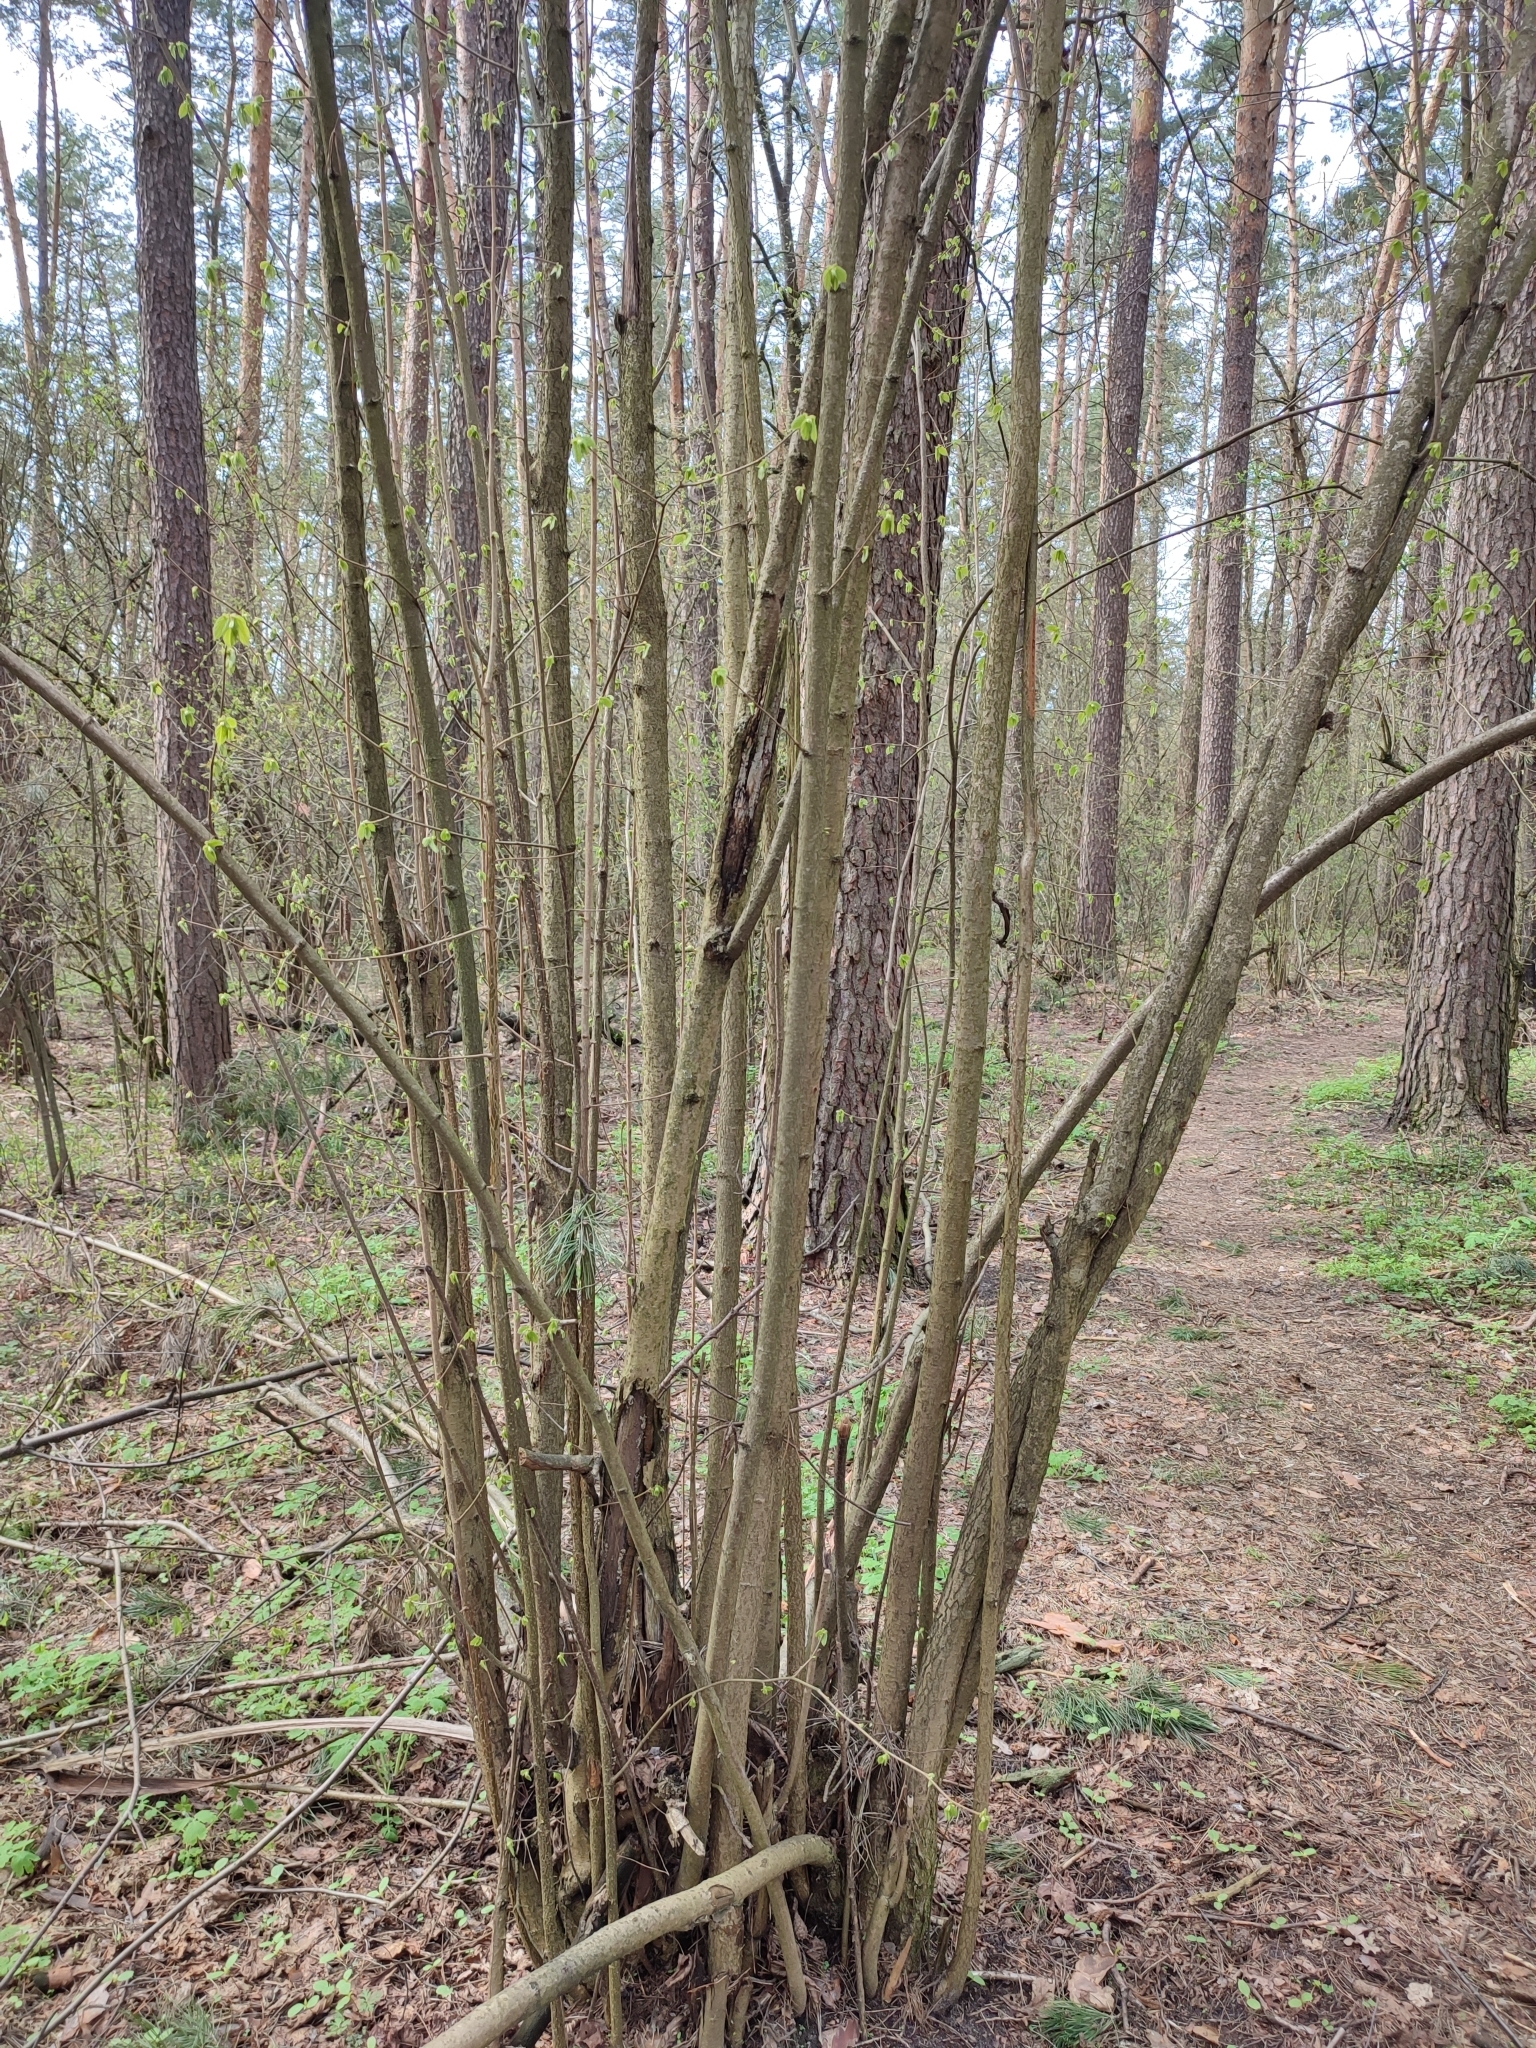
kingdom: Plantae
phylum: Tracheophyta
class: Magnoliopsida
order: Fagales
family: Betulaceae
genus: Corylus
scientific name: Corylus avellana
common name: European hazel
